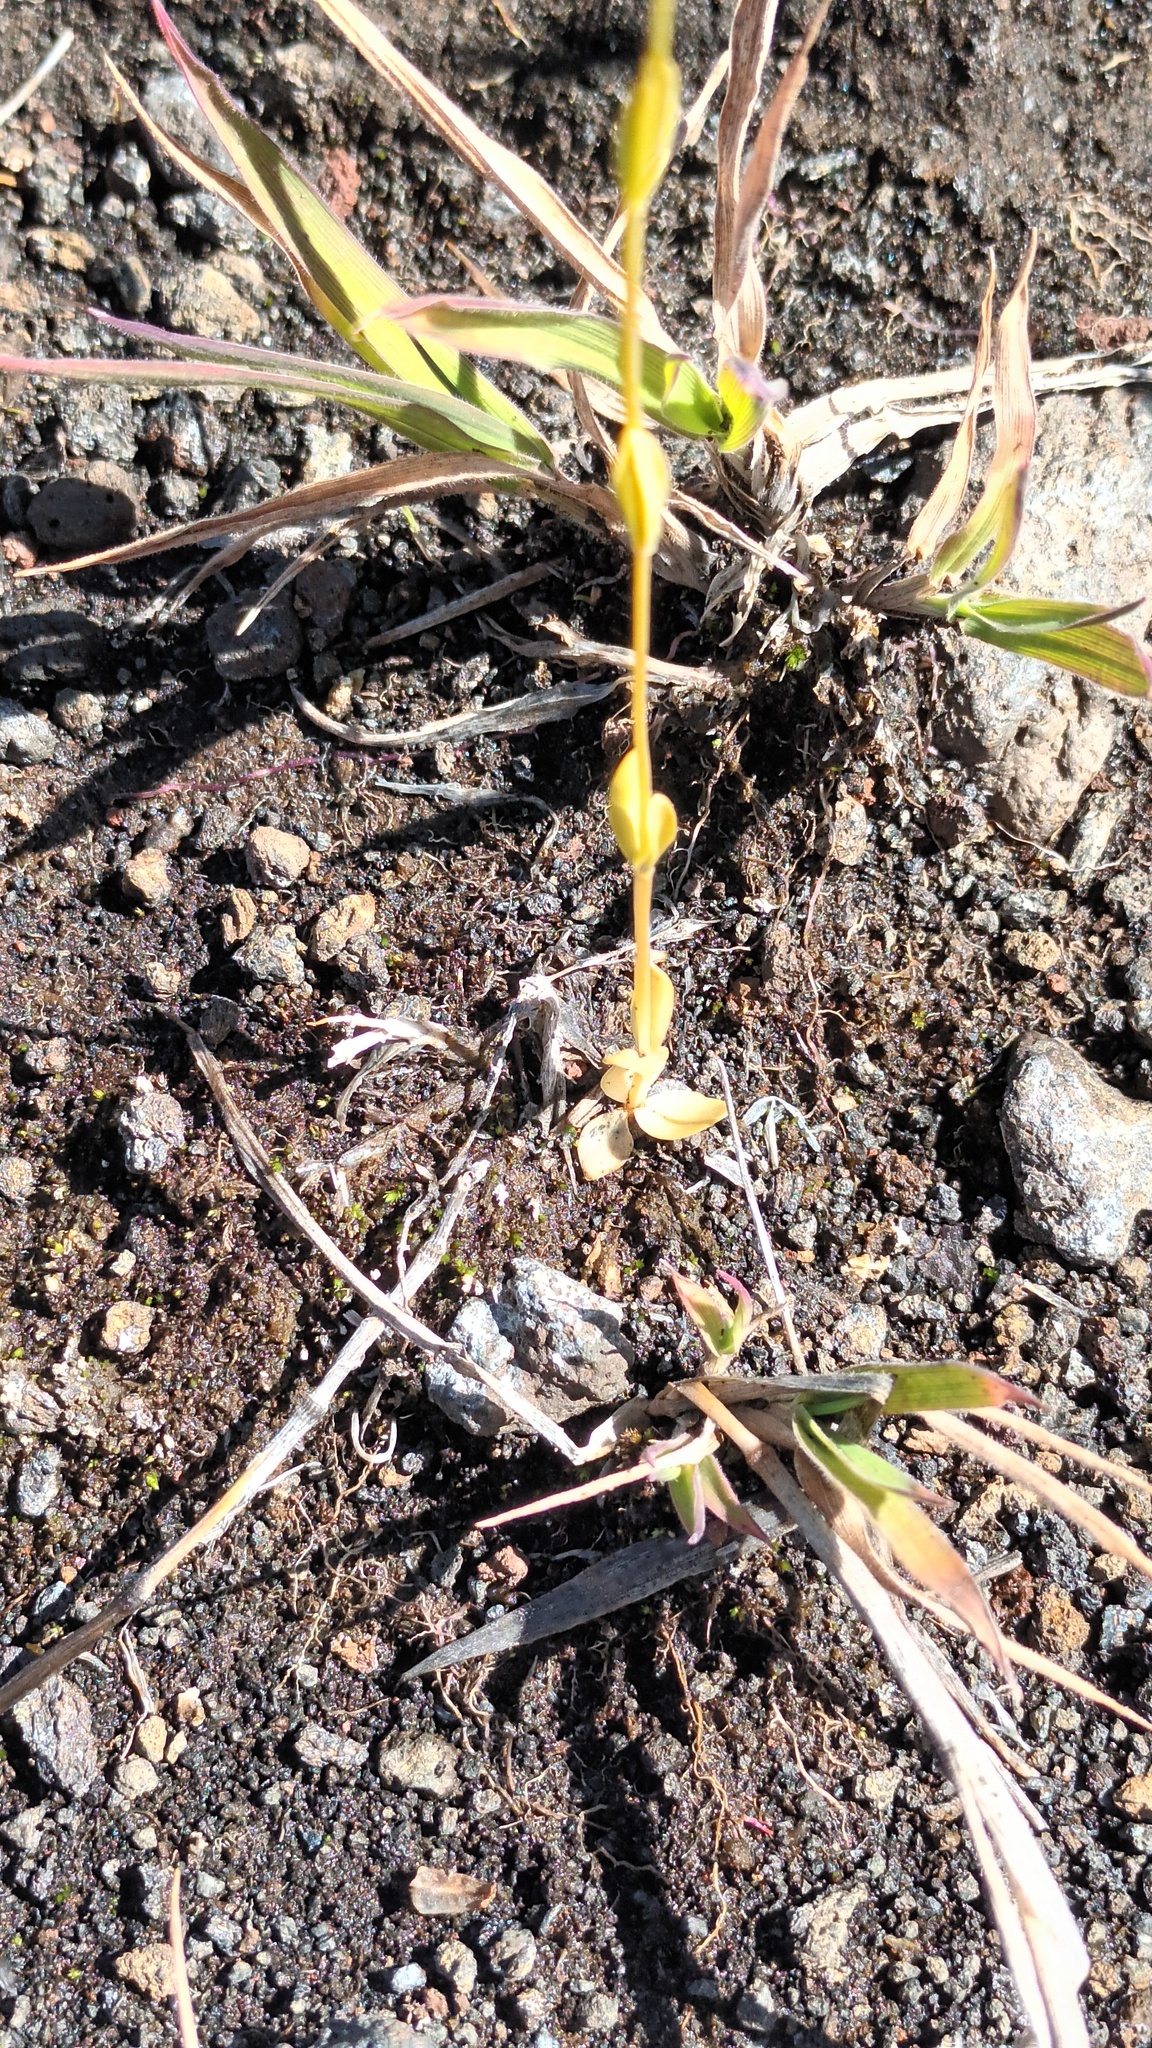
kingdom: Plantae
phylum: Tracheophyta
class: Magnoliopsida
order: Gentianales
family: Gentianaceae
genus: Centaurium
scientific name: Centaurium erythraea
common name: Common centaury
